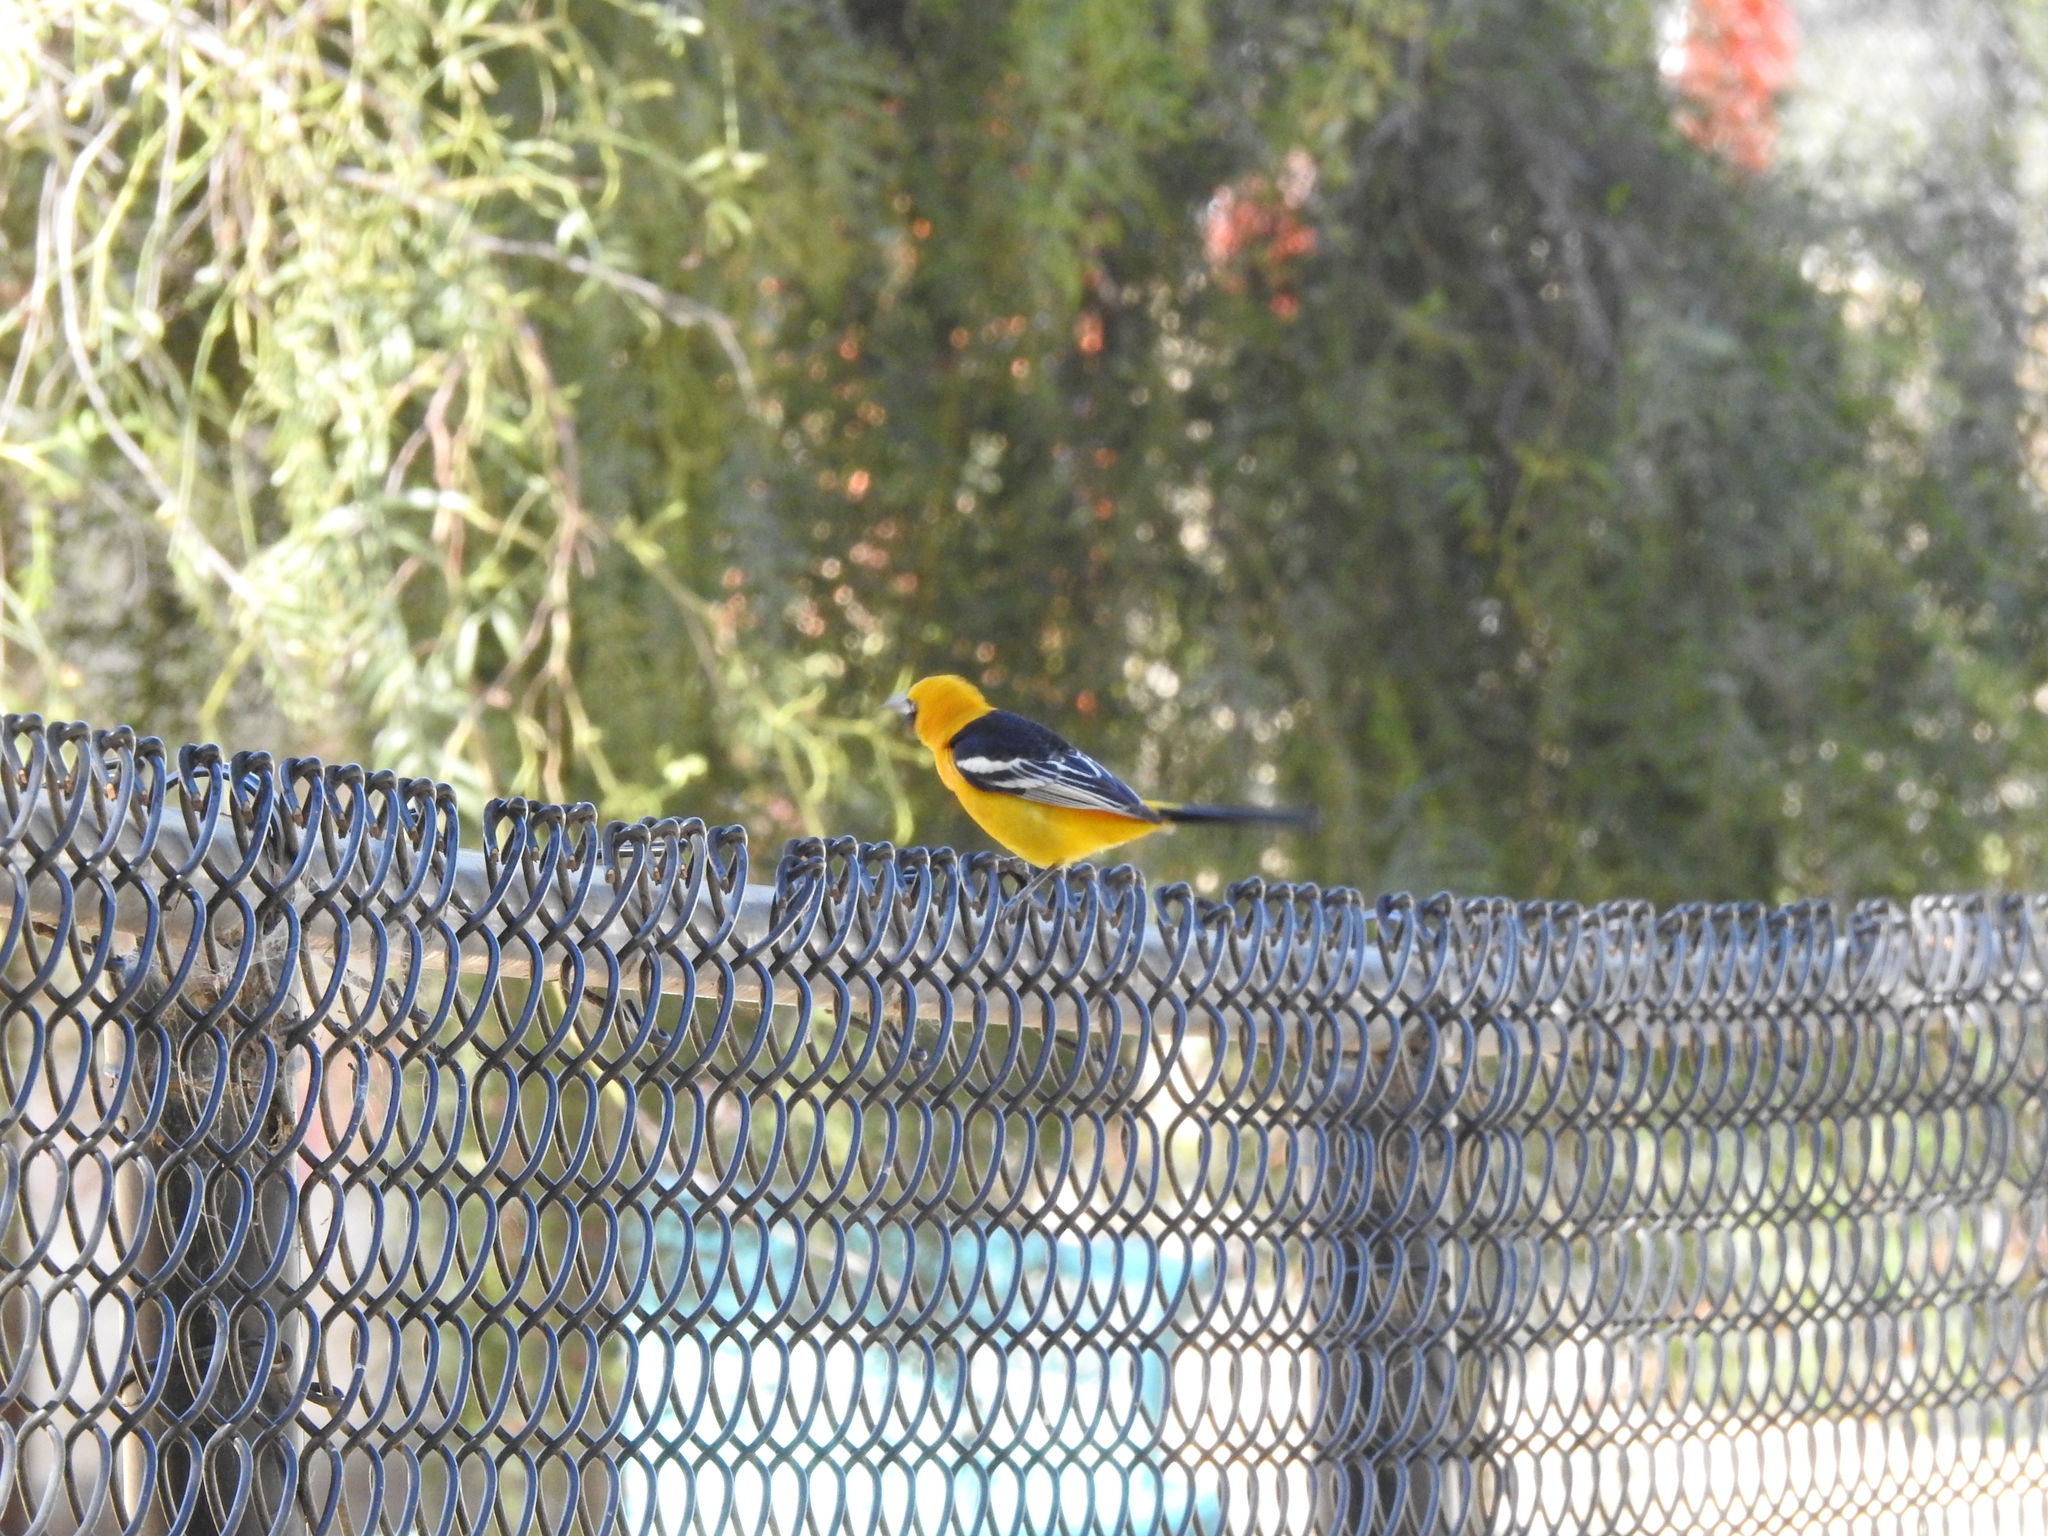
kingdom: Animalia
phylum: Chordata
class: Aves
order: Passeriformes
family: Icteridae
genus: Icterus
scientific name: Icterus cucullatus
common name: Hooded oriole
